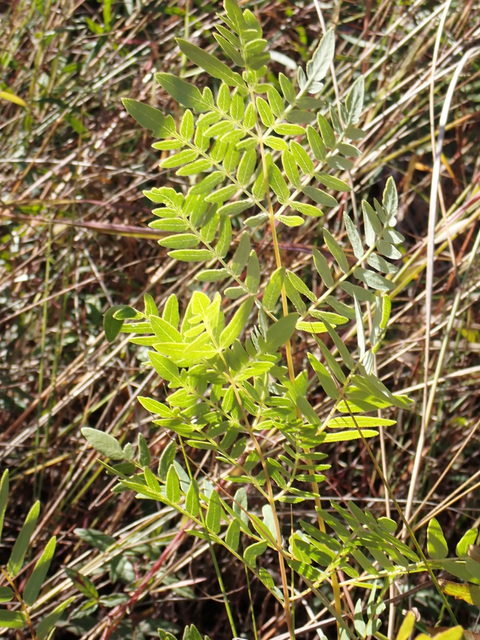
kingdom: Plantae
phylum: Tracheophyta
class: Polypodiopsida
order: Osmundales
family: Osmundaceae
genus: Osmunda
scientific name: Osmunda spectabilis
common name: American royal fern
